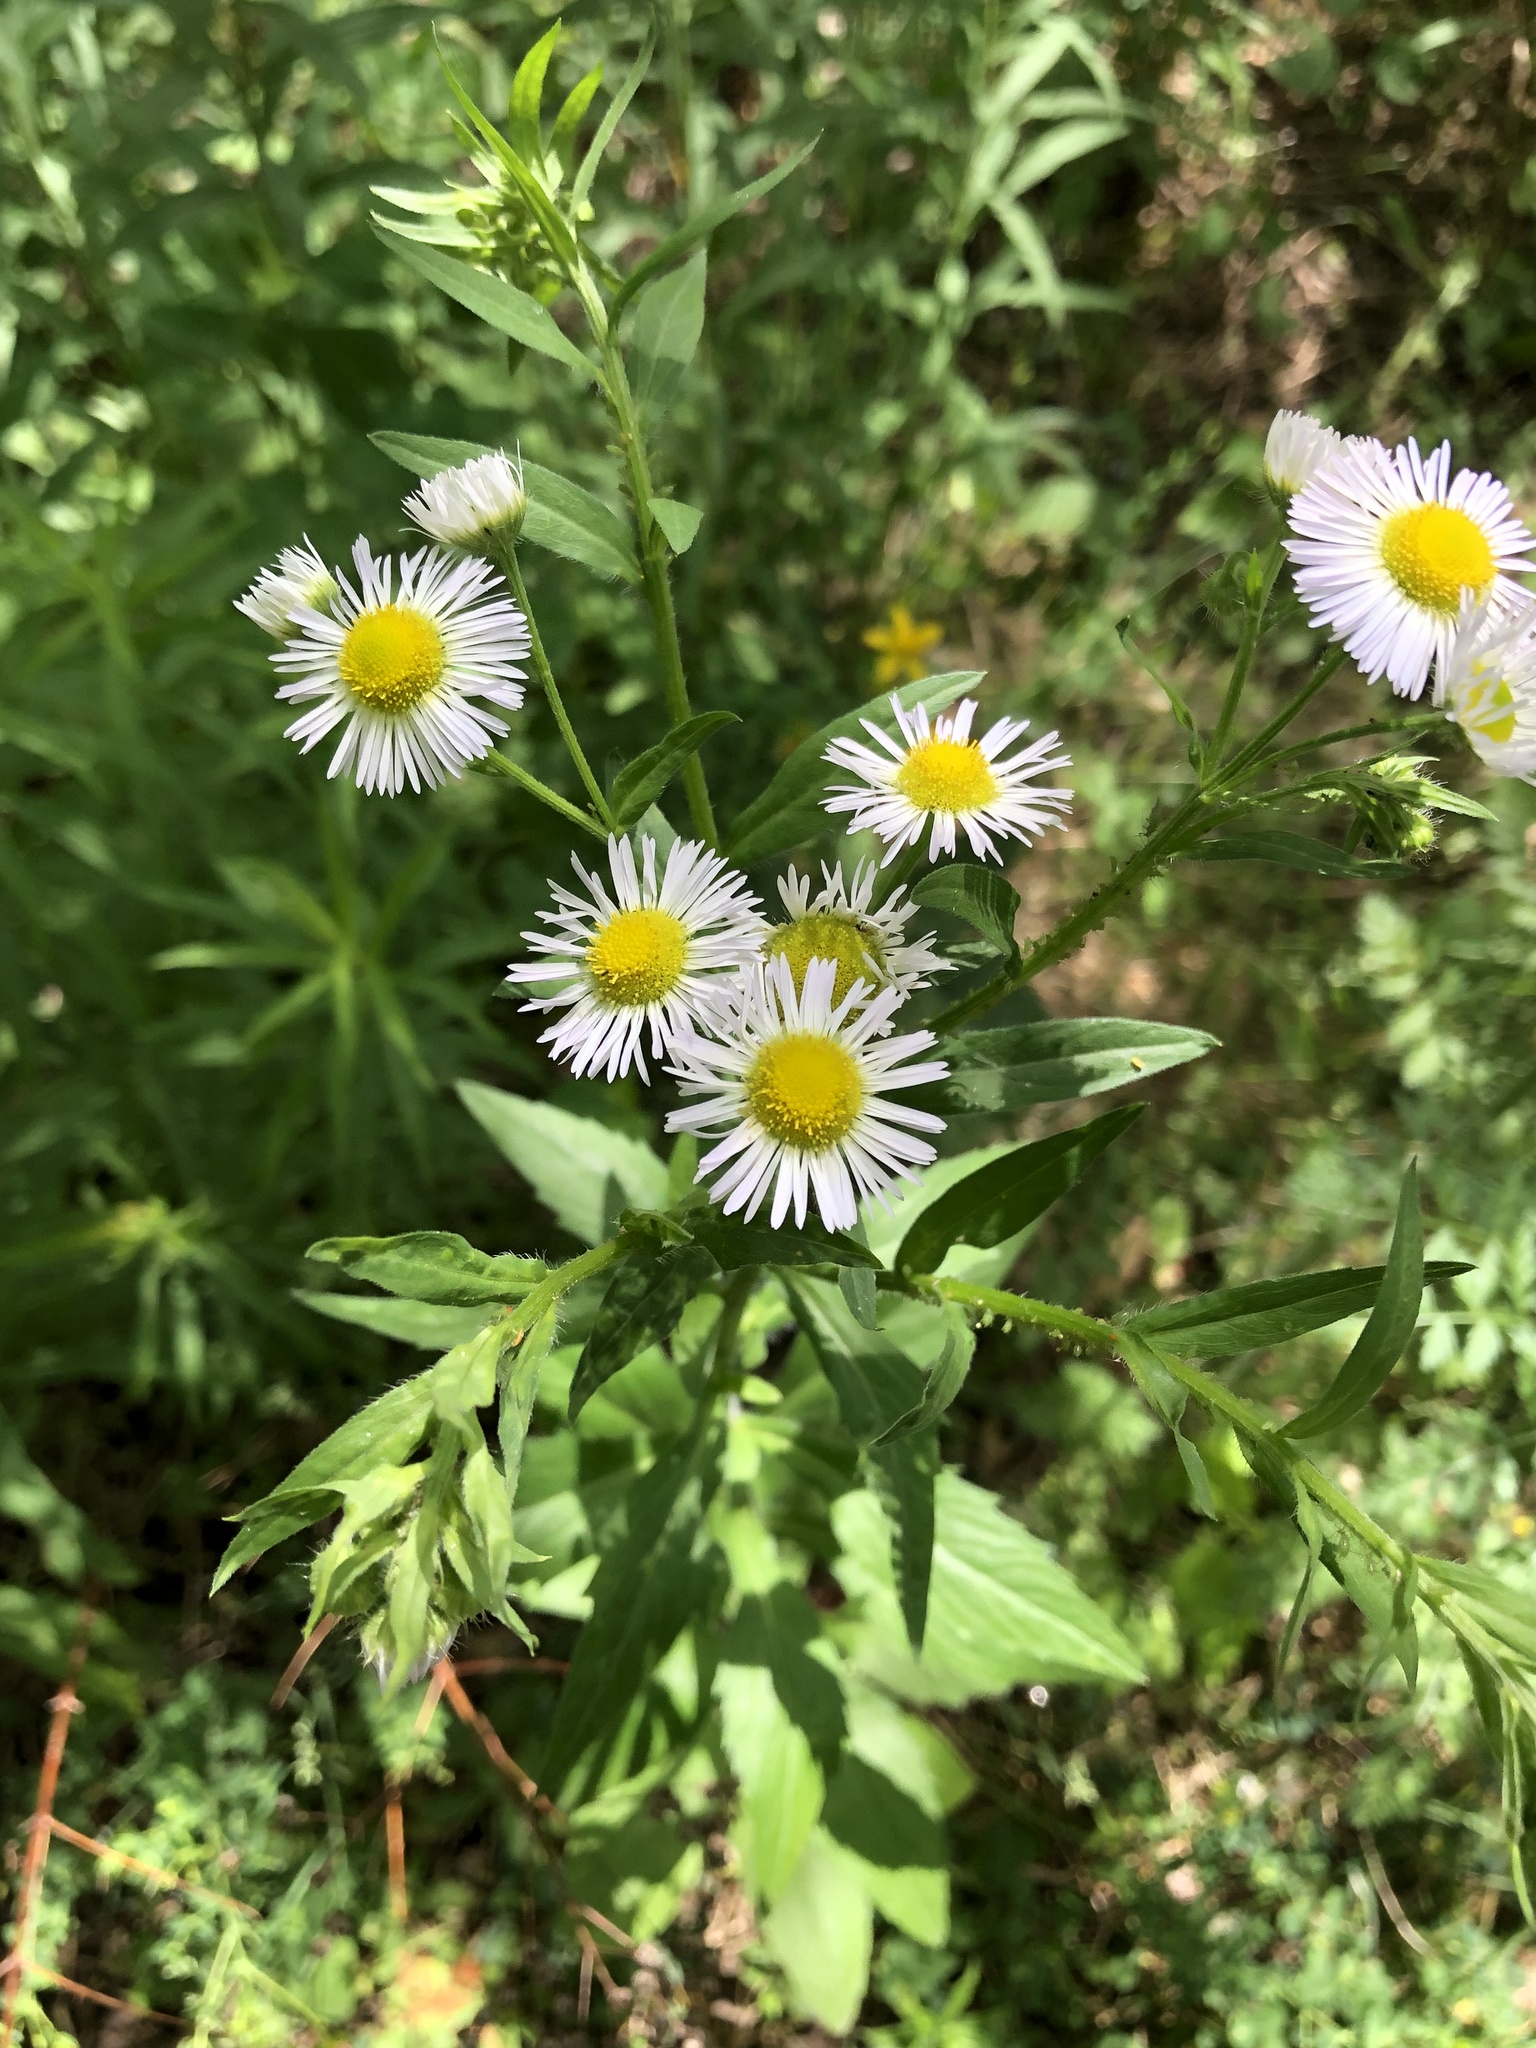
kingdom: Plantae
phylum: Tracheophyta
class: Magnoliopsida
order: Asterales
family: Asteraceae
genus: Erigeron
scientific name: Erigeron annuus
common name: Tall fleabane
